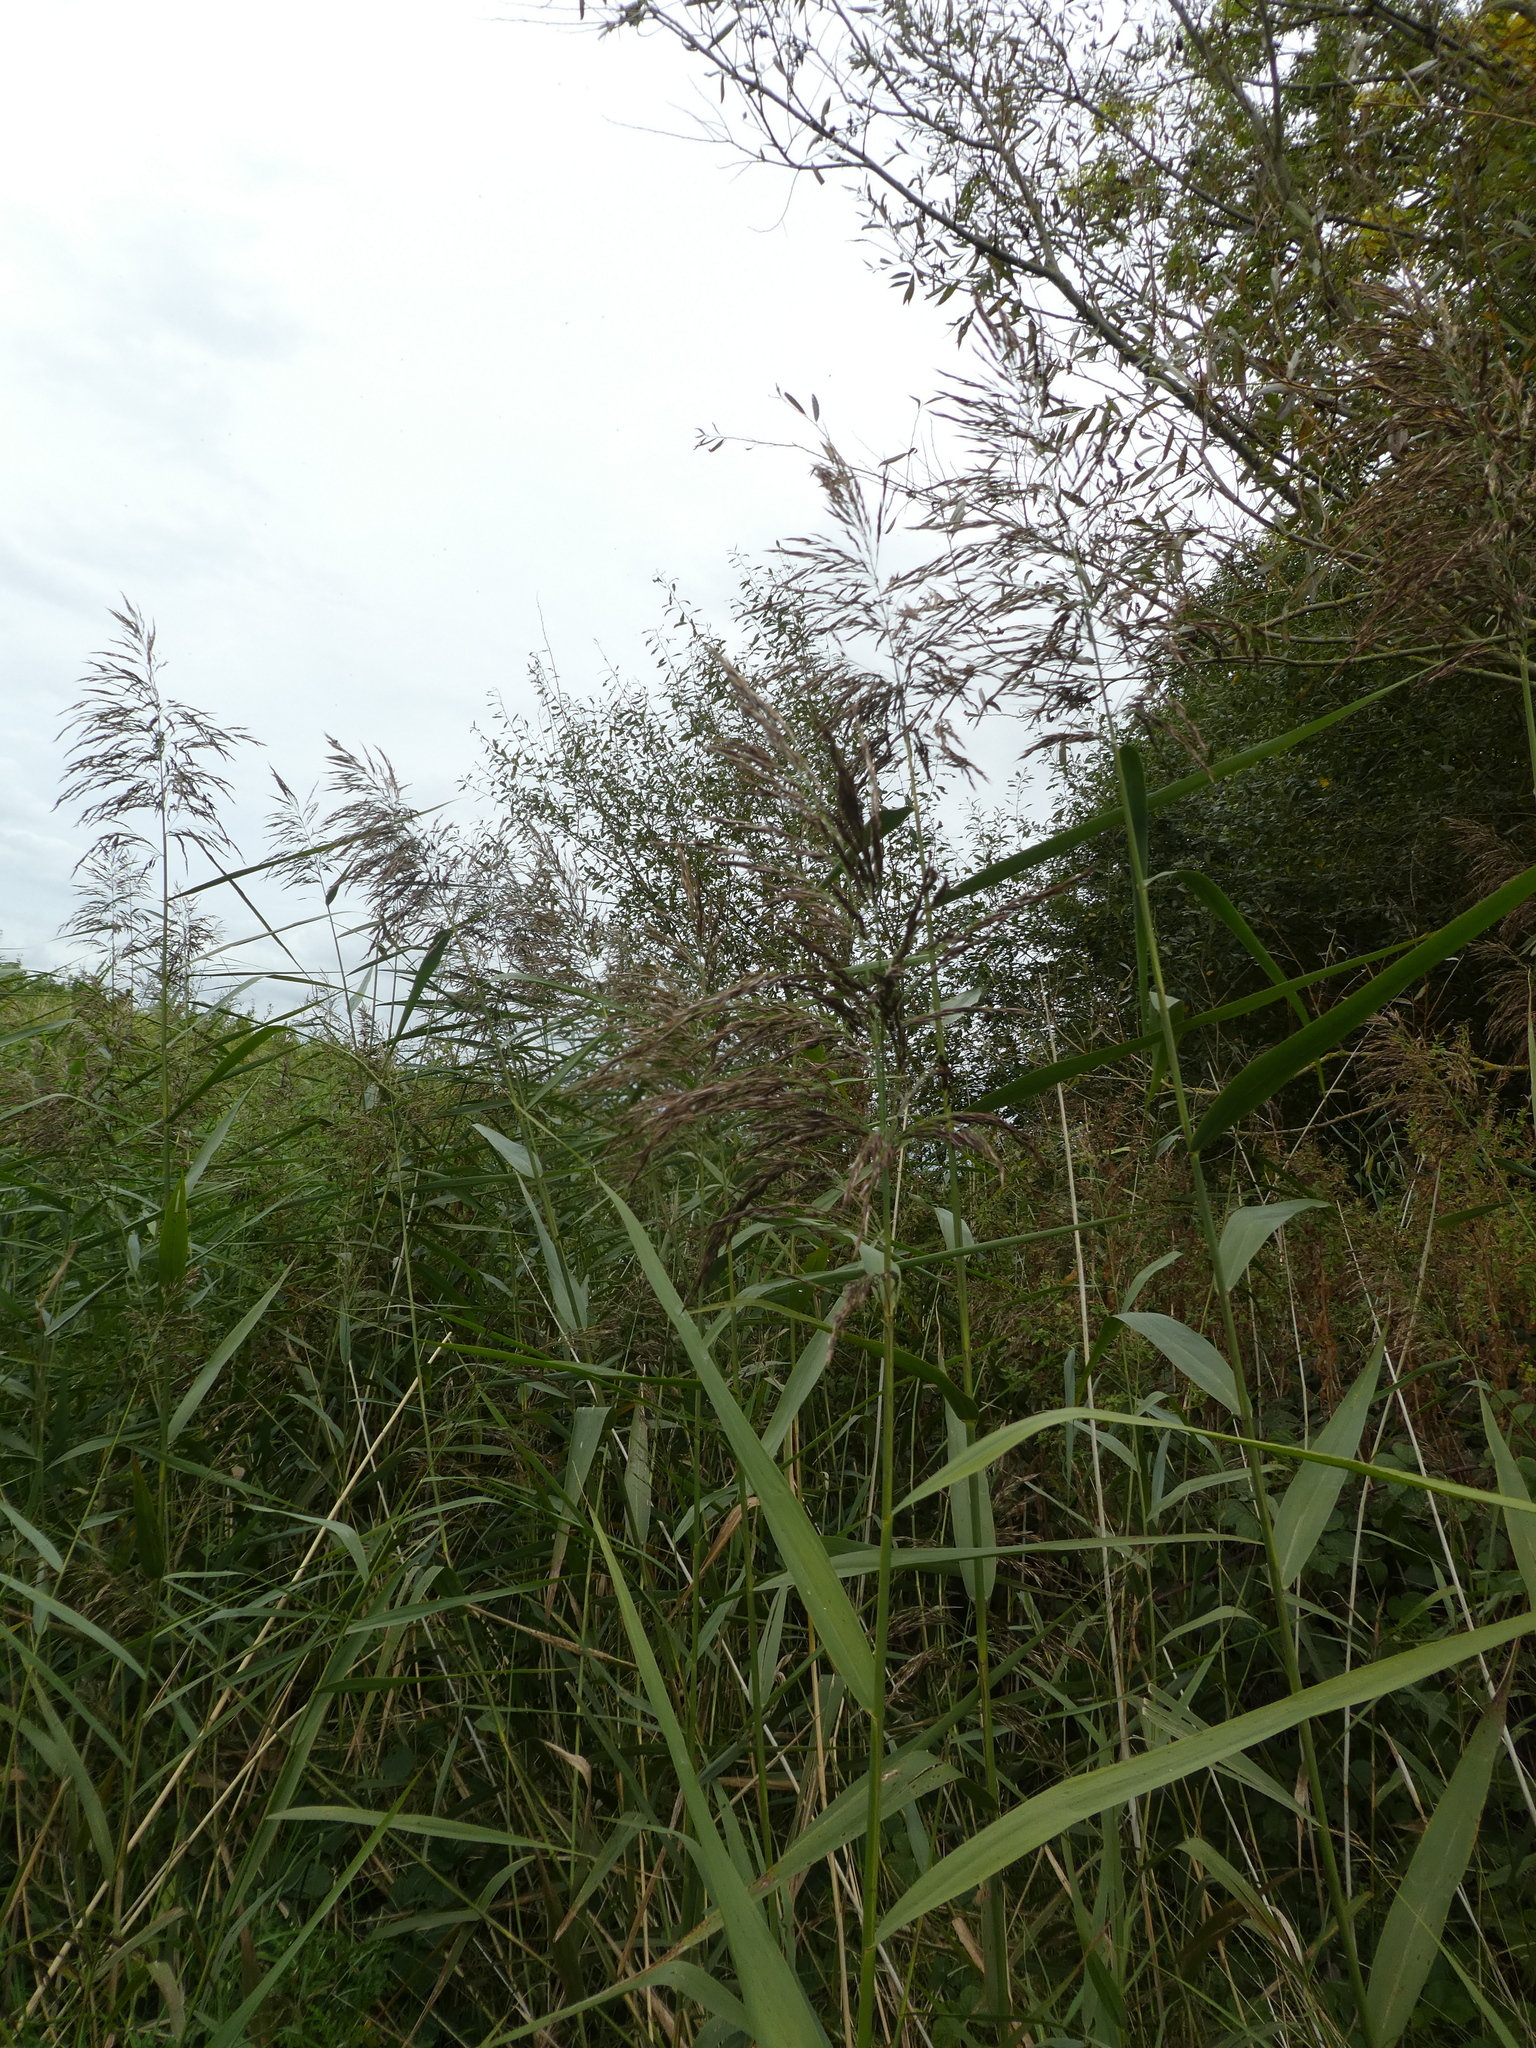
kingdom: Plantae
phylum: Tracheophyta
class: Liliopsida
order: Poales
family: Poaceae
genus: Phragmites
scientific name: Phragmites australis
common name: Common reed
